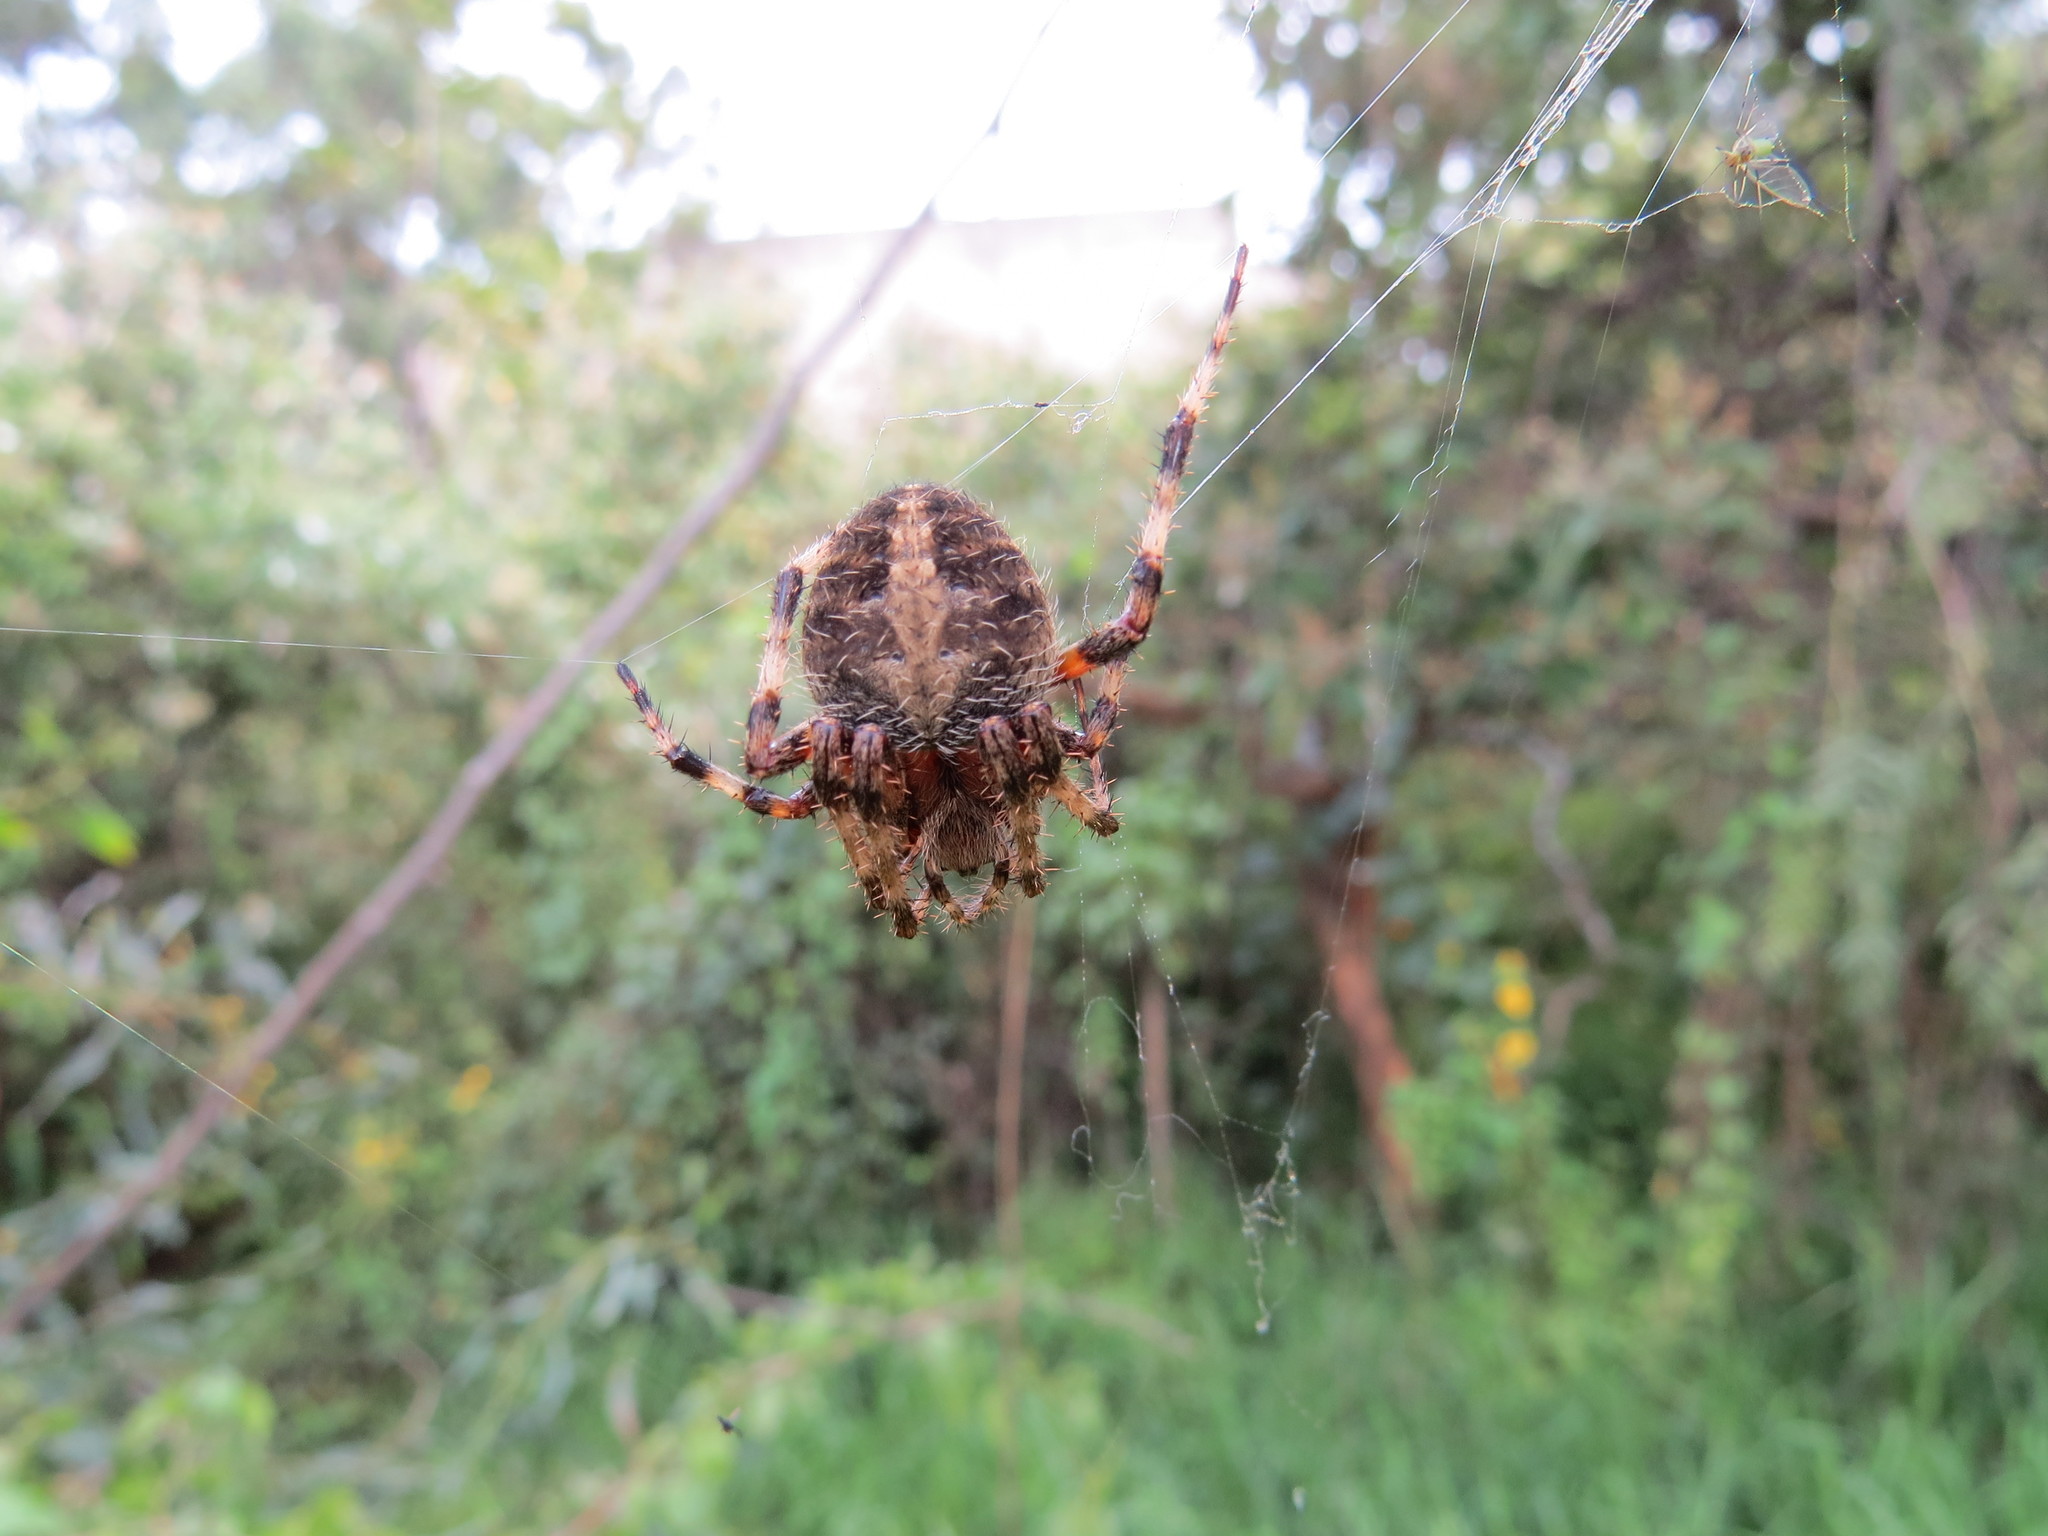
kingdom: Animalia
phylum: Arthropoda
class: Arachnida
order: Araneae
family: Araneidae
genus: Neoscona
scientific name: Neoscona crucifera
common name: Spotted orbweaver
